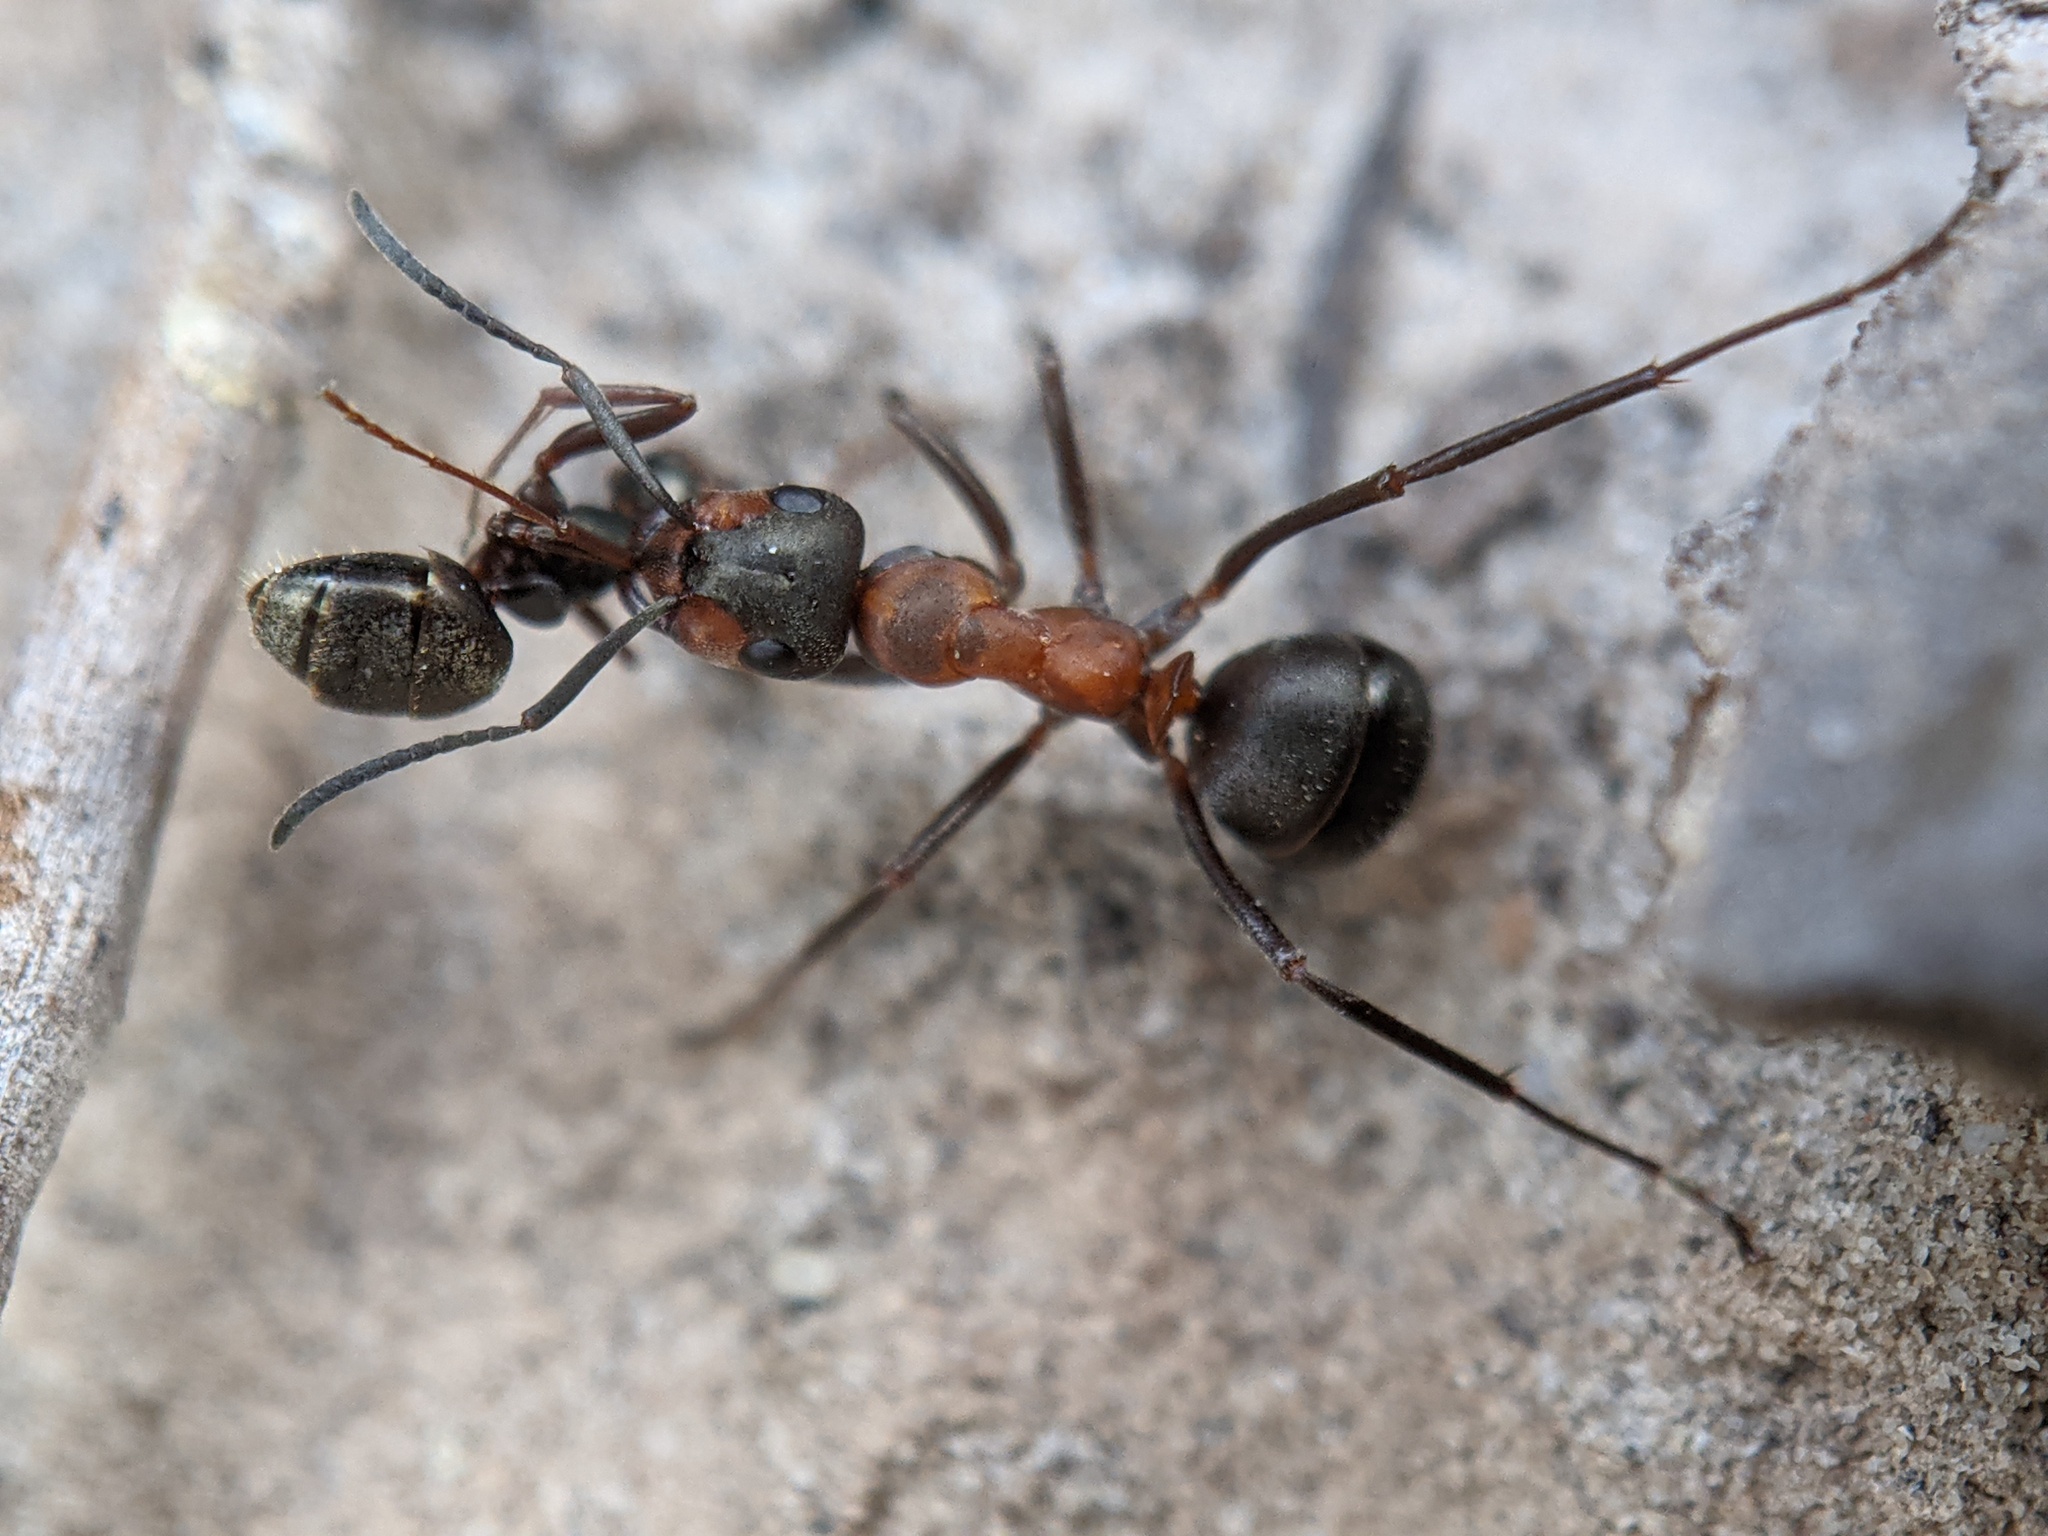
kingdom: Animalia
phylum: Arthropoda
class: Insecta
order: Hymenoptera
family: Formicidae
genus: Formica
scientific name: Formica
